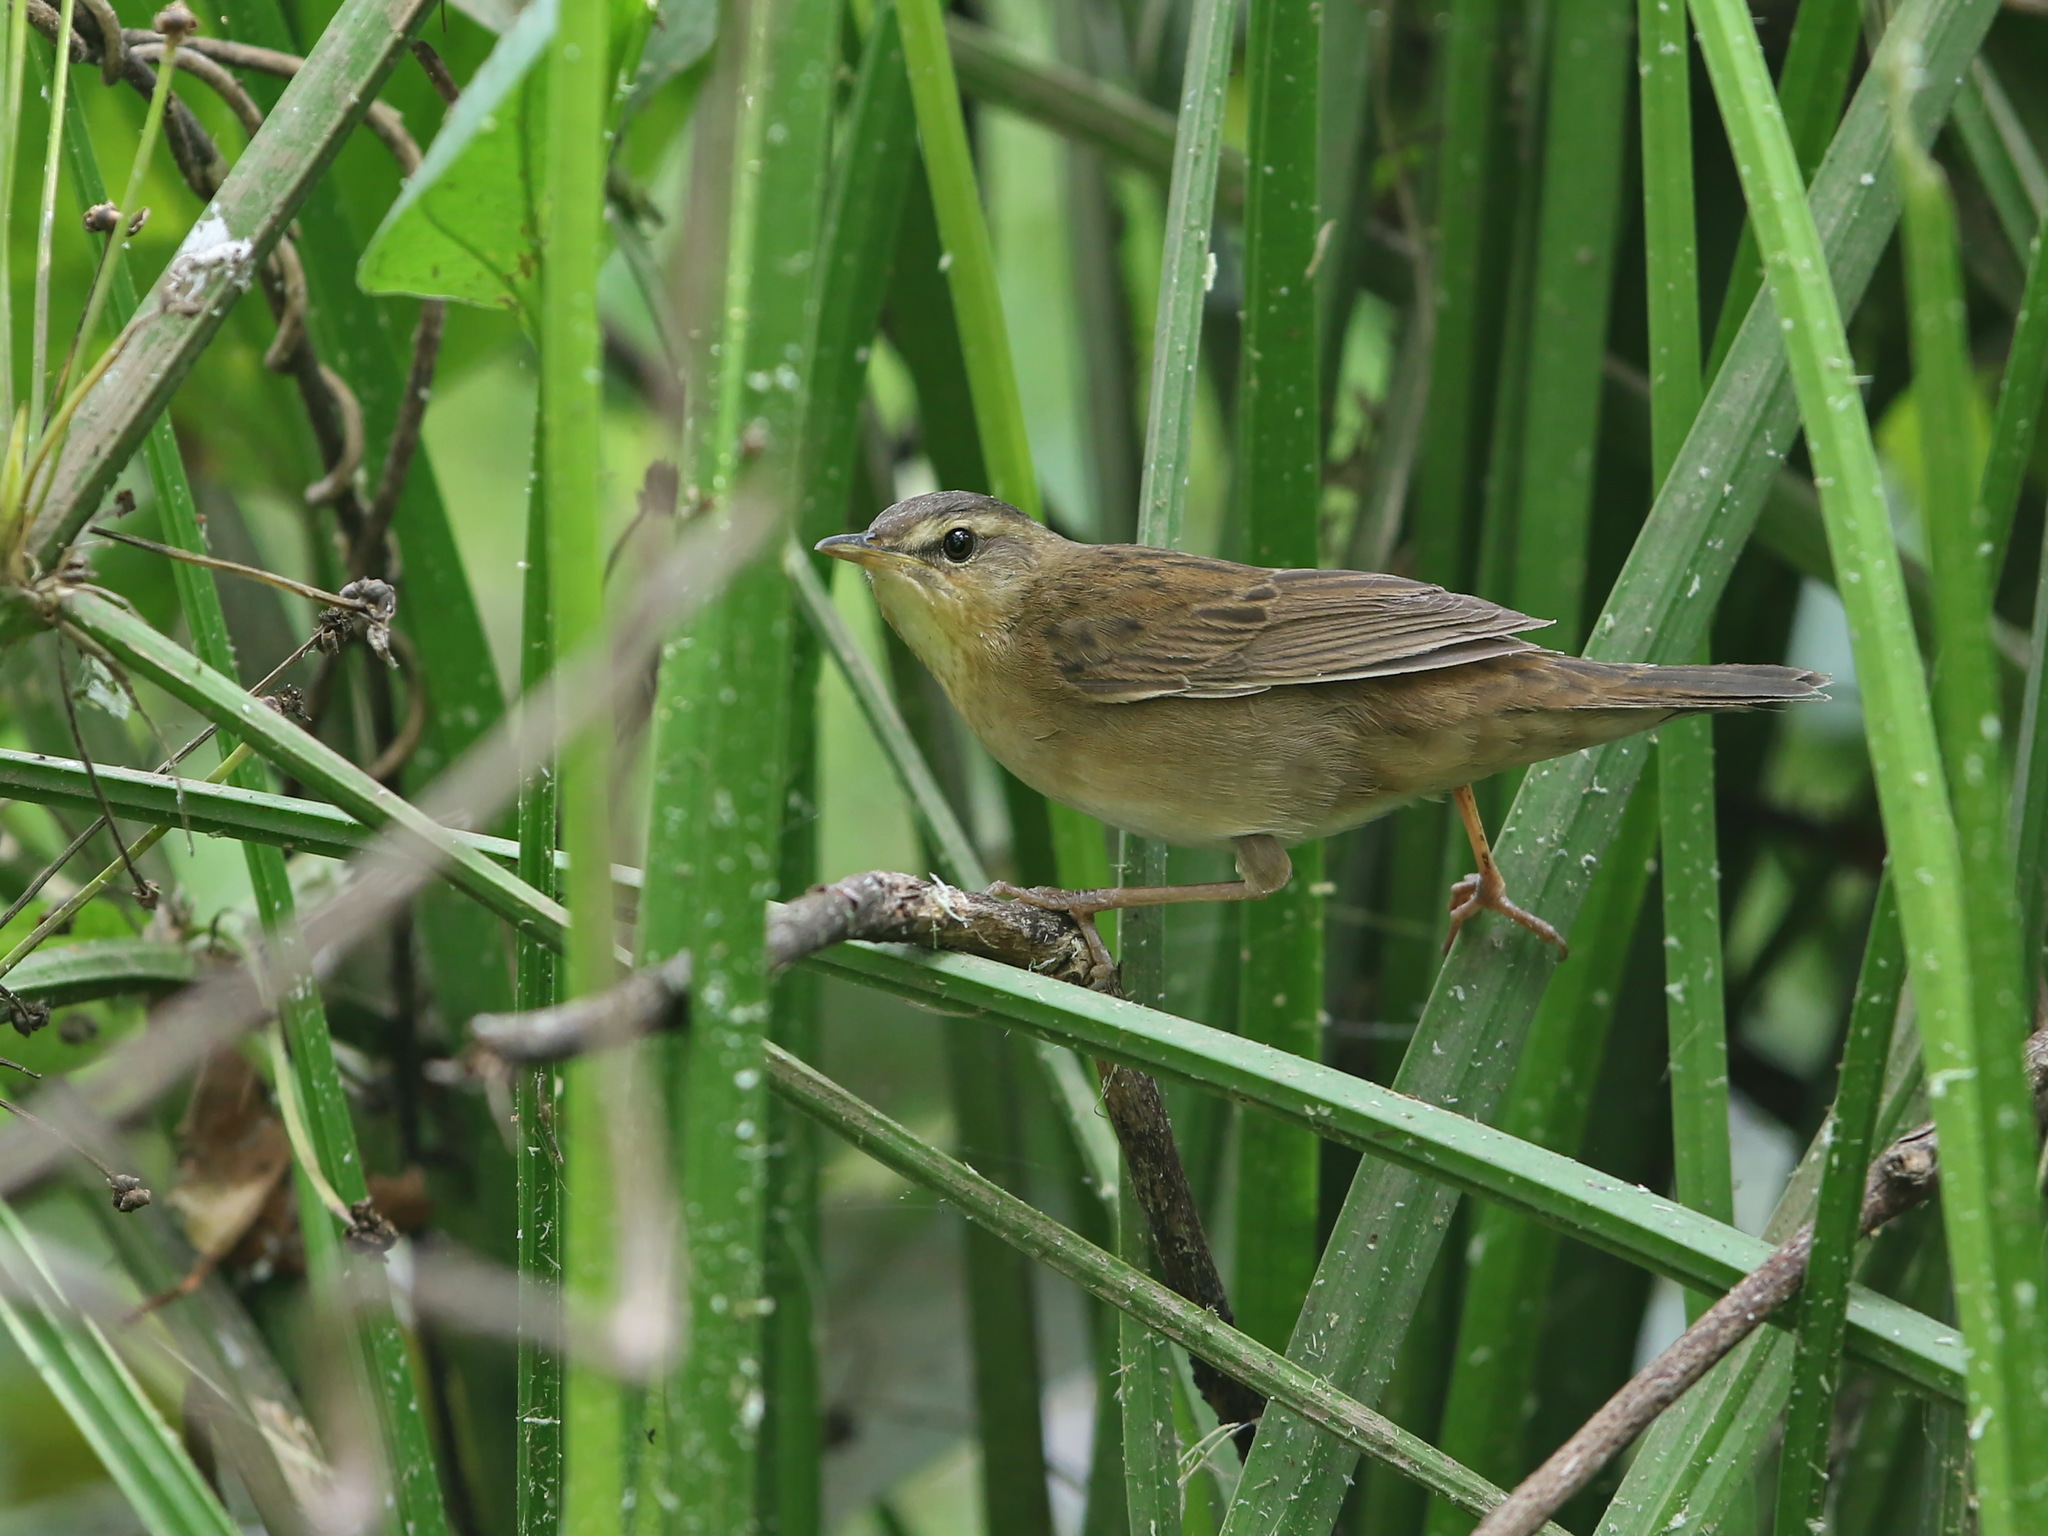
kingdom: Animalia
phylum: Chordata
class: Aves
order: Passeriformes
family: Locustellidae
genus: Locustella
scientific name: Locustella certhiola
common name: Pallas's grasshopper warbler
